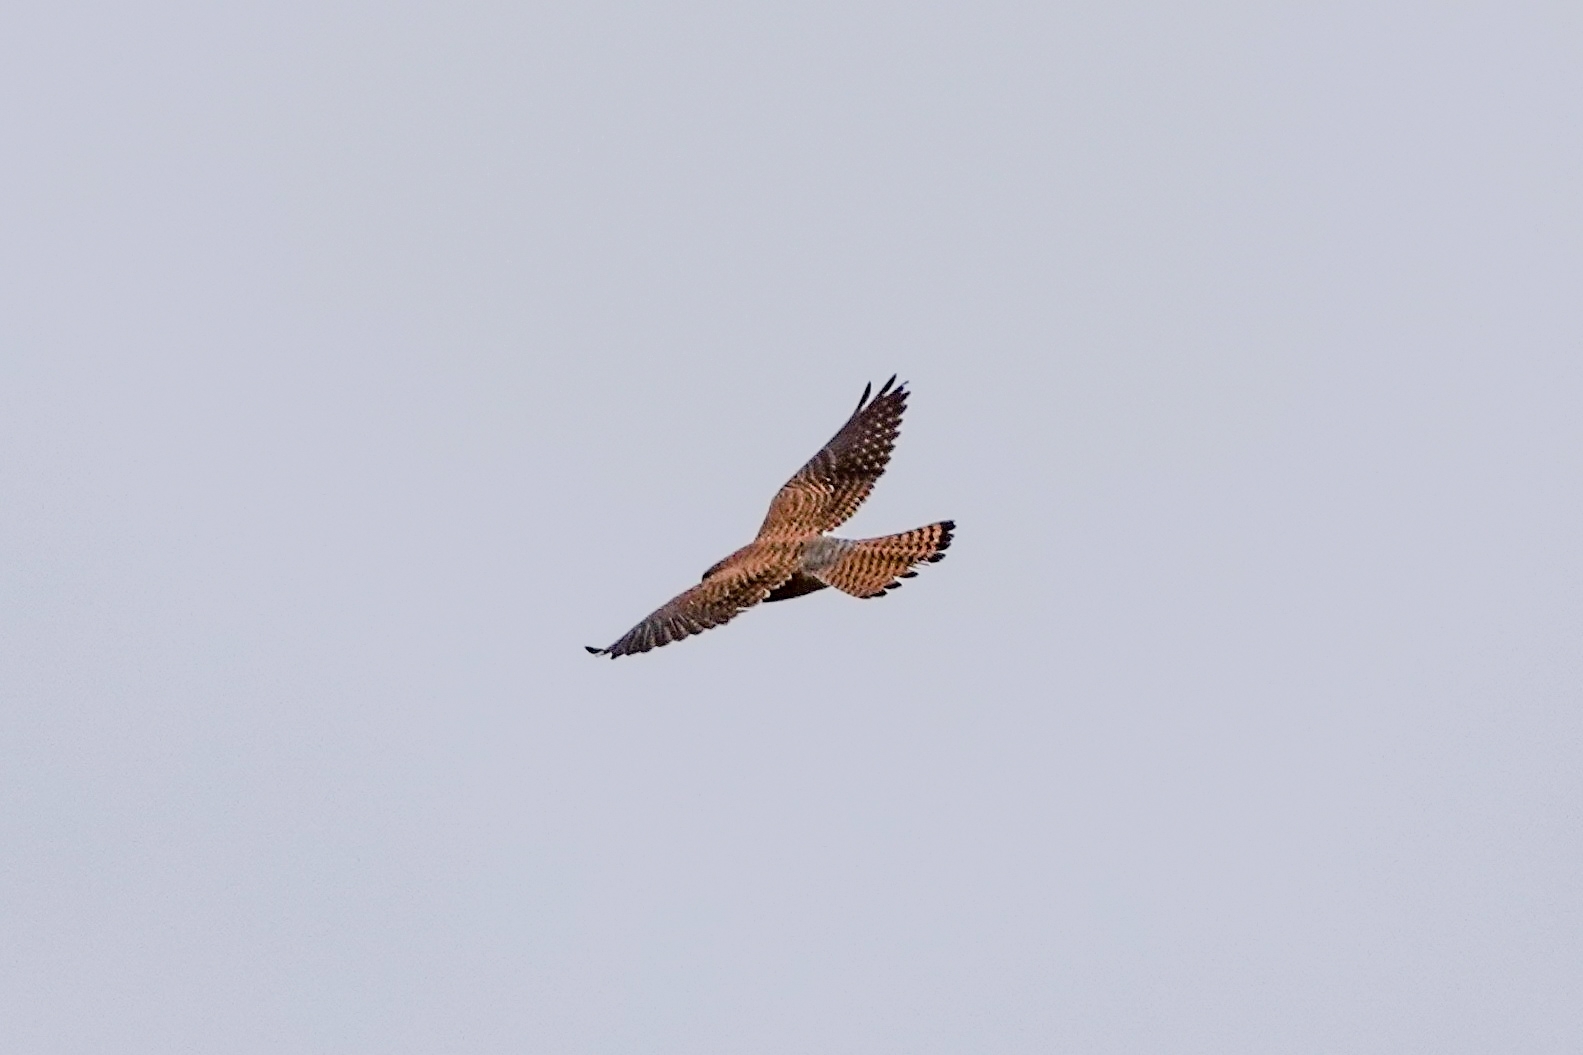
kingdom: Animalia
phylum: Chordata
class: Aves
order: Falconiformes
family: Falconidae
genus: Falco
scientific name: Falco tinnunculus
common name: Common kestrel
